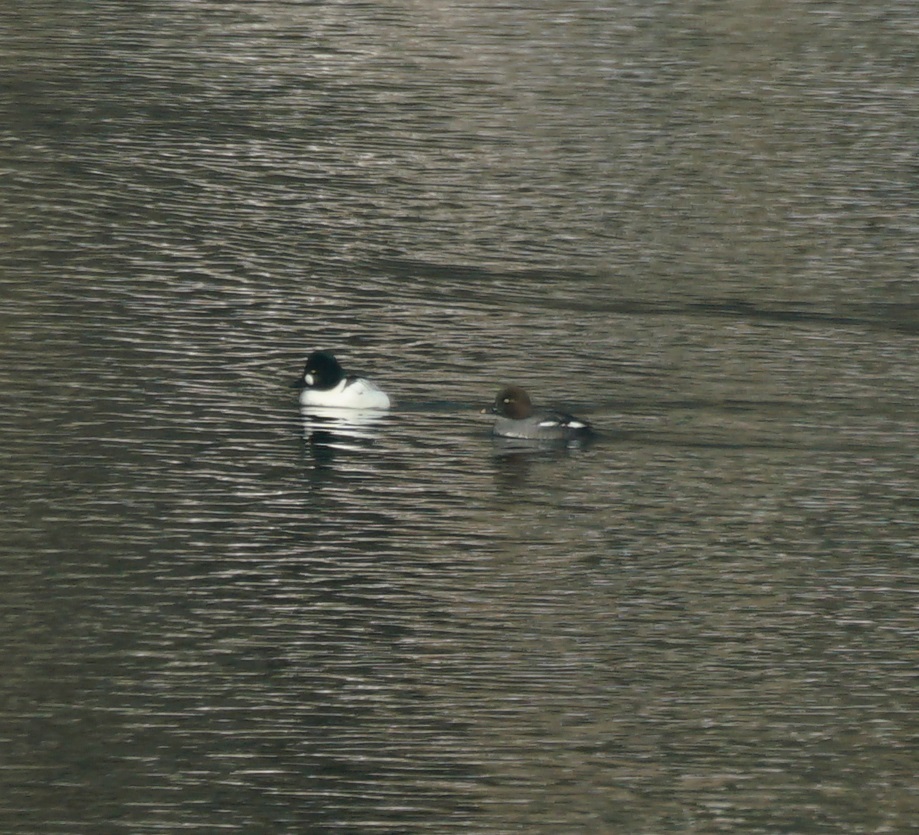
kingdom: Animalia
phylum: Chordata
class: Aves
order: Anseriformes
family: Anatidae
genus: Bucephala
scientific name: Bucephala clangula
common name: Common goldeneye
